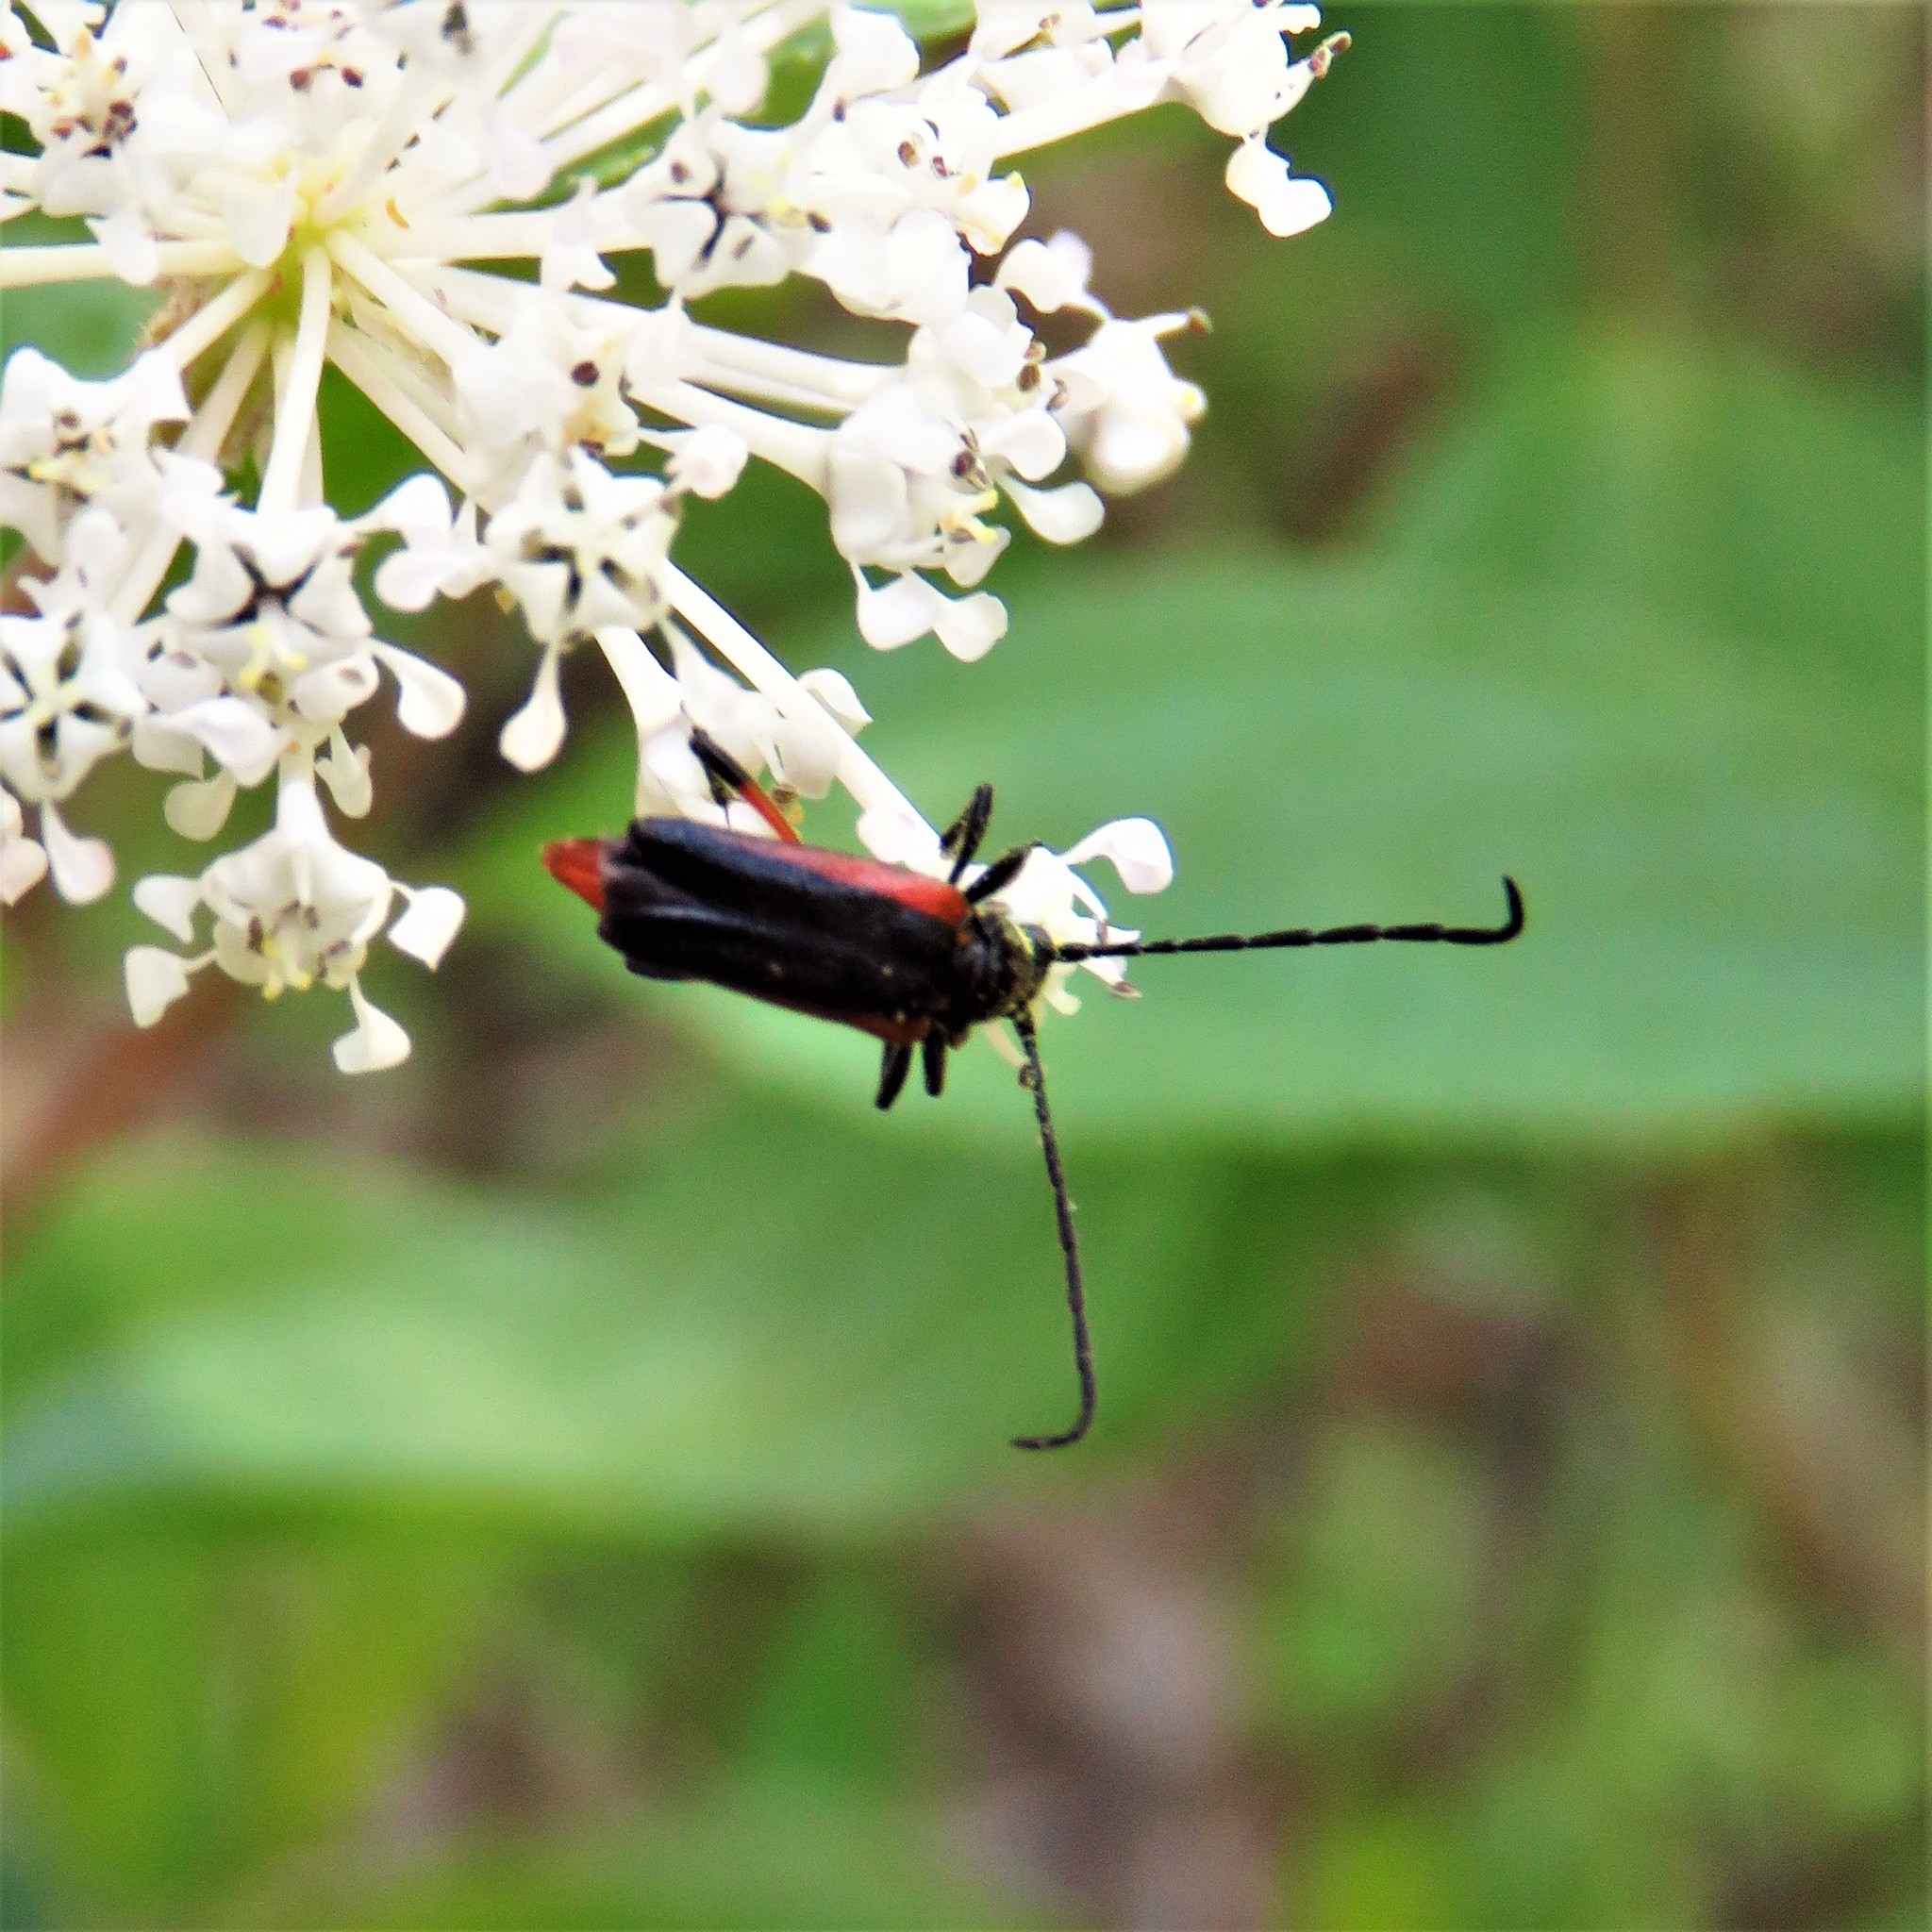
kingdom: Animalia
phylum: Arthropoda
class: Insecta
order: Coleoptera
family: Cerambycidae
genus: Pseudostrangalia
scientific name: Pseudostrangalia cruentata
